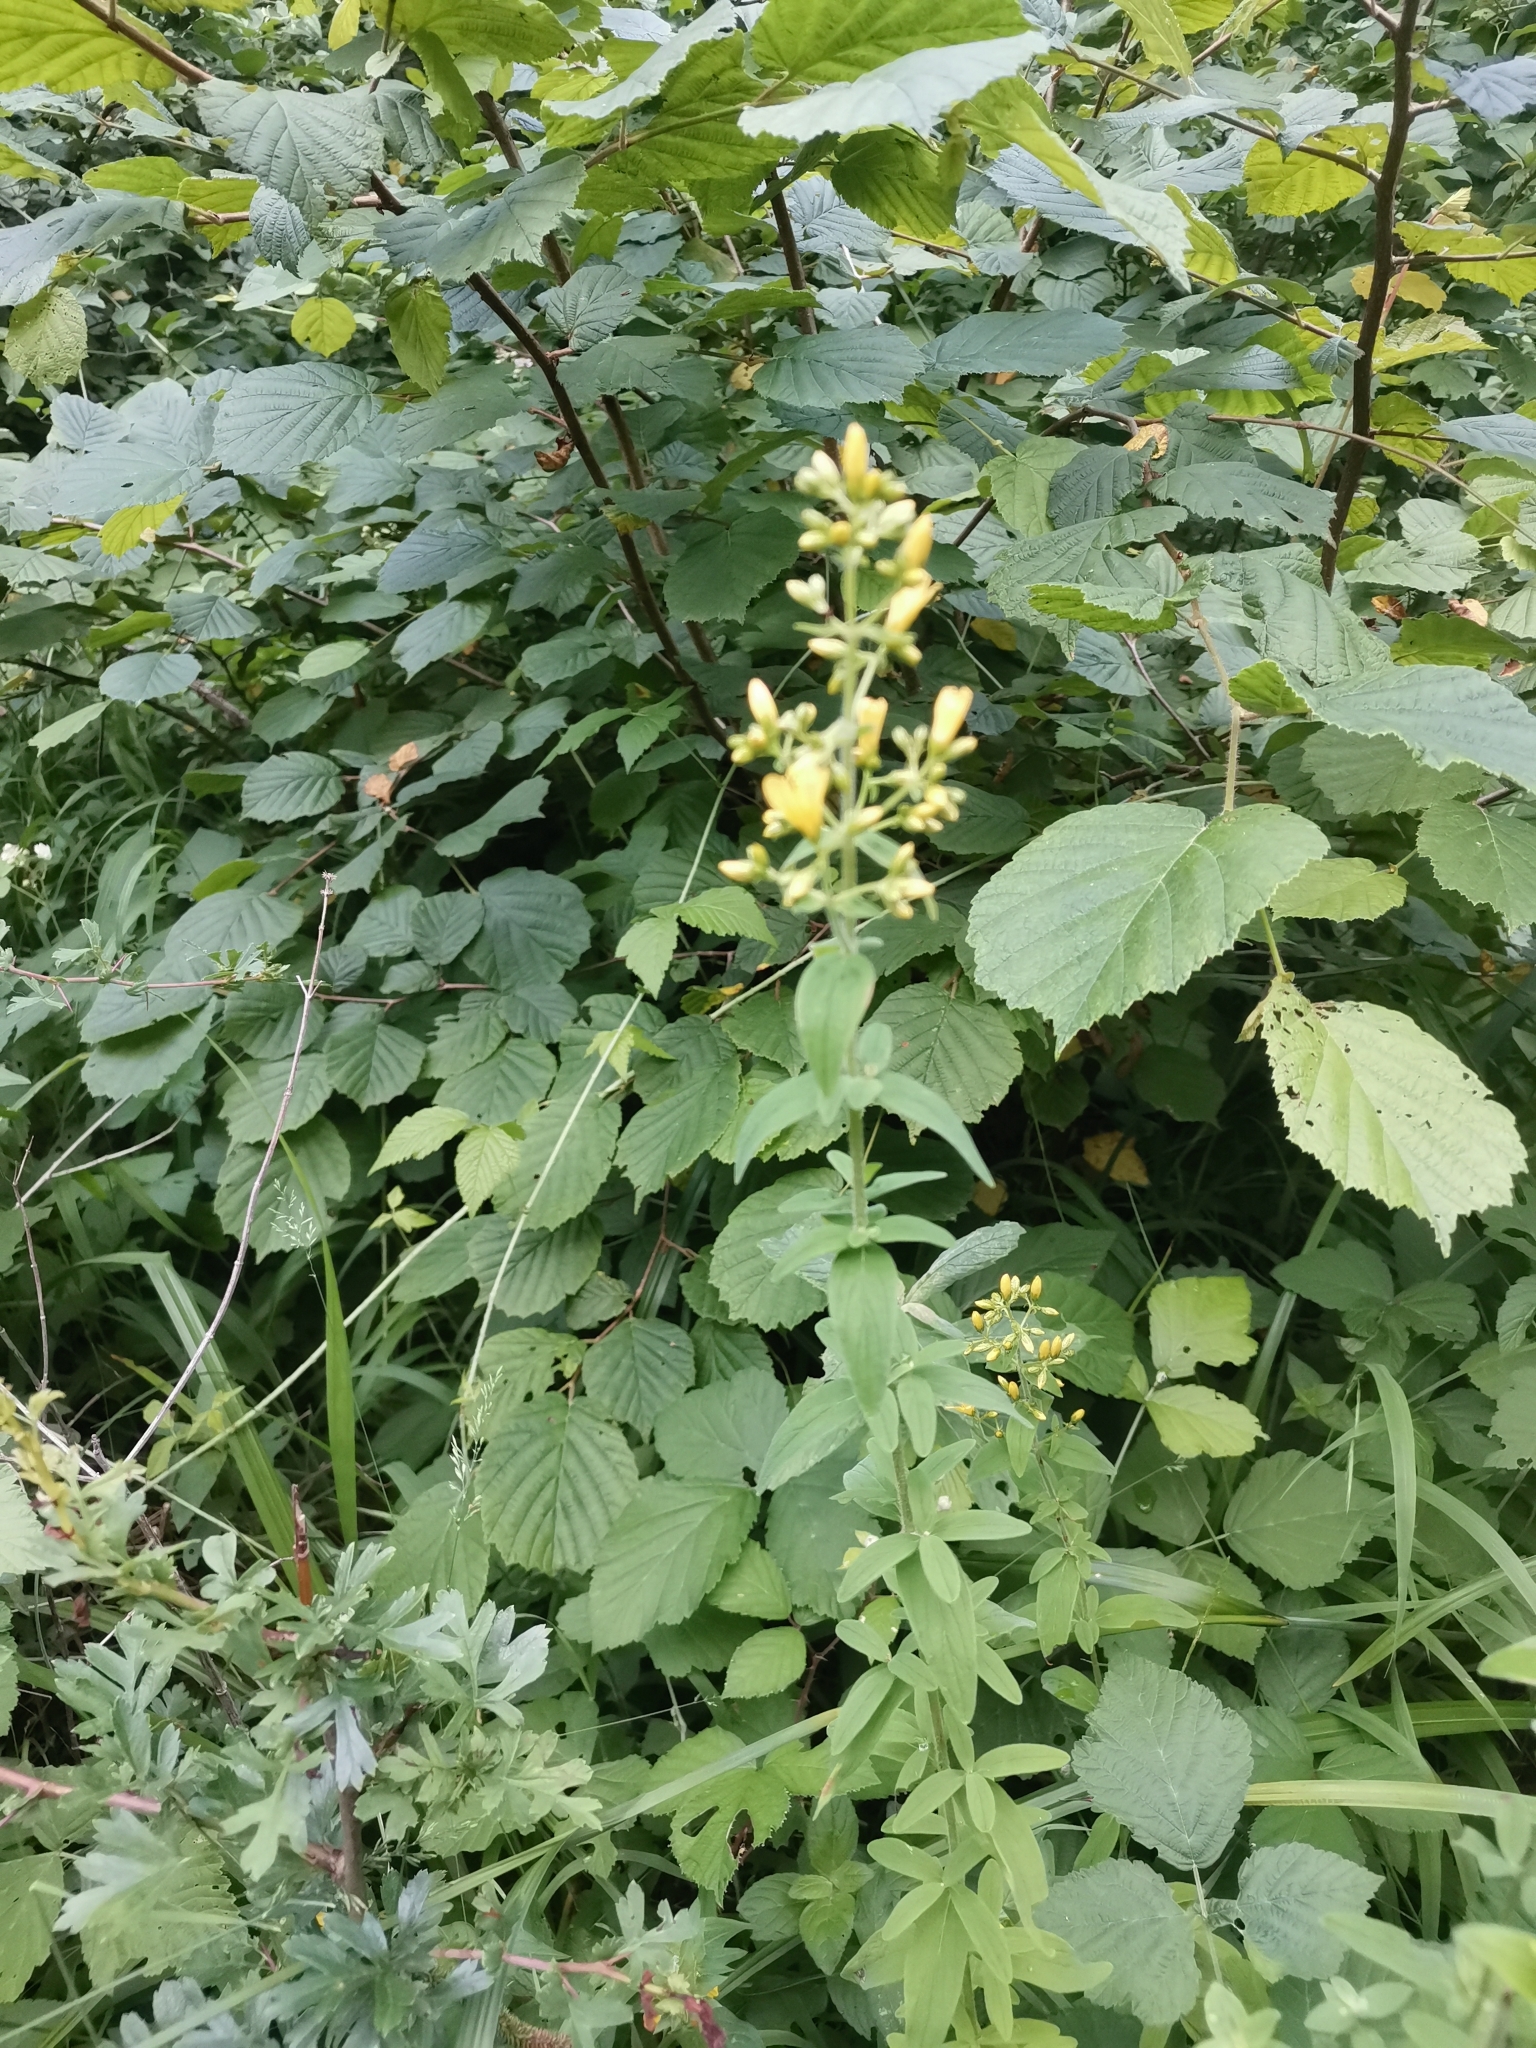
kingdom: Plantae
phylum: Tracheophyta
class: Magnoliopsida
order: Malpighiales
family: Hypericaceae
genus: Hypericum
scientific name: Hypericum hirsutum
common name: Hairy st. john's-wort
